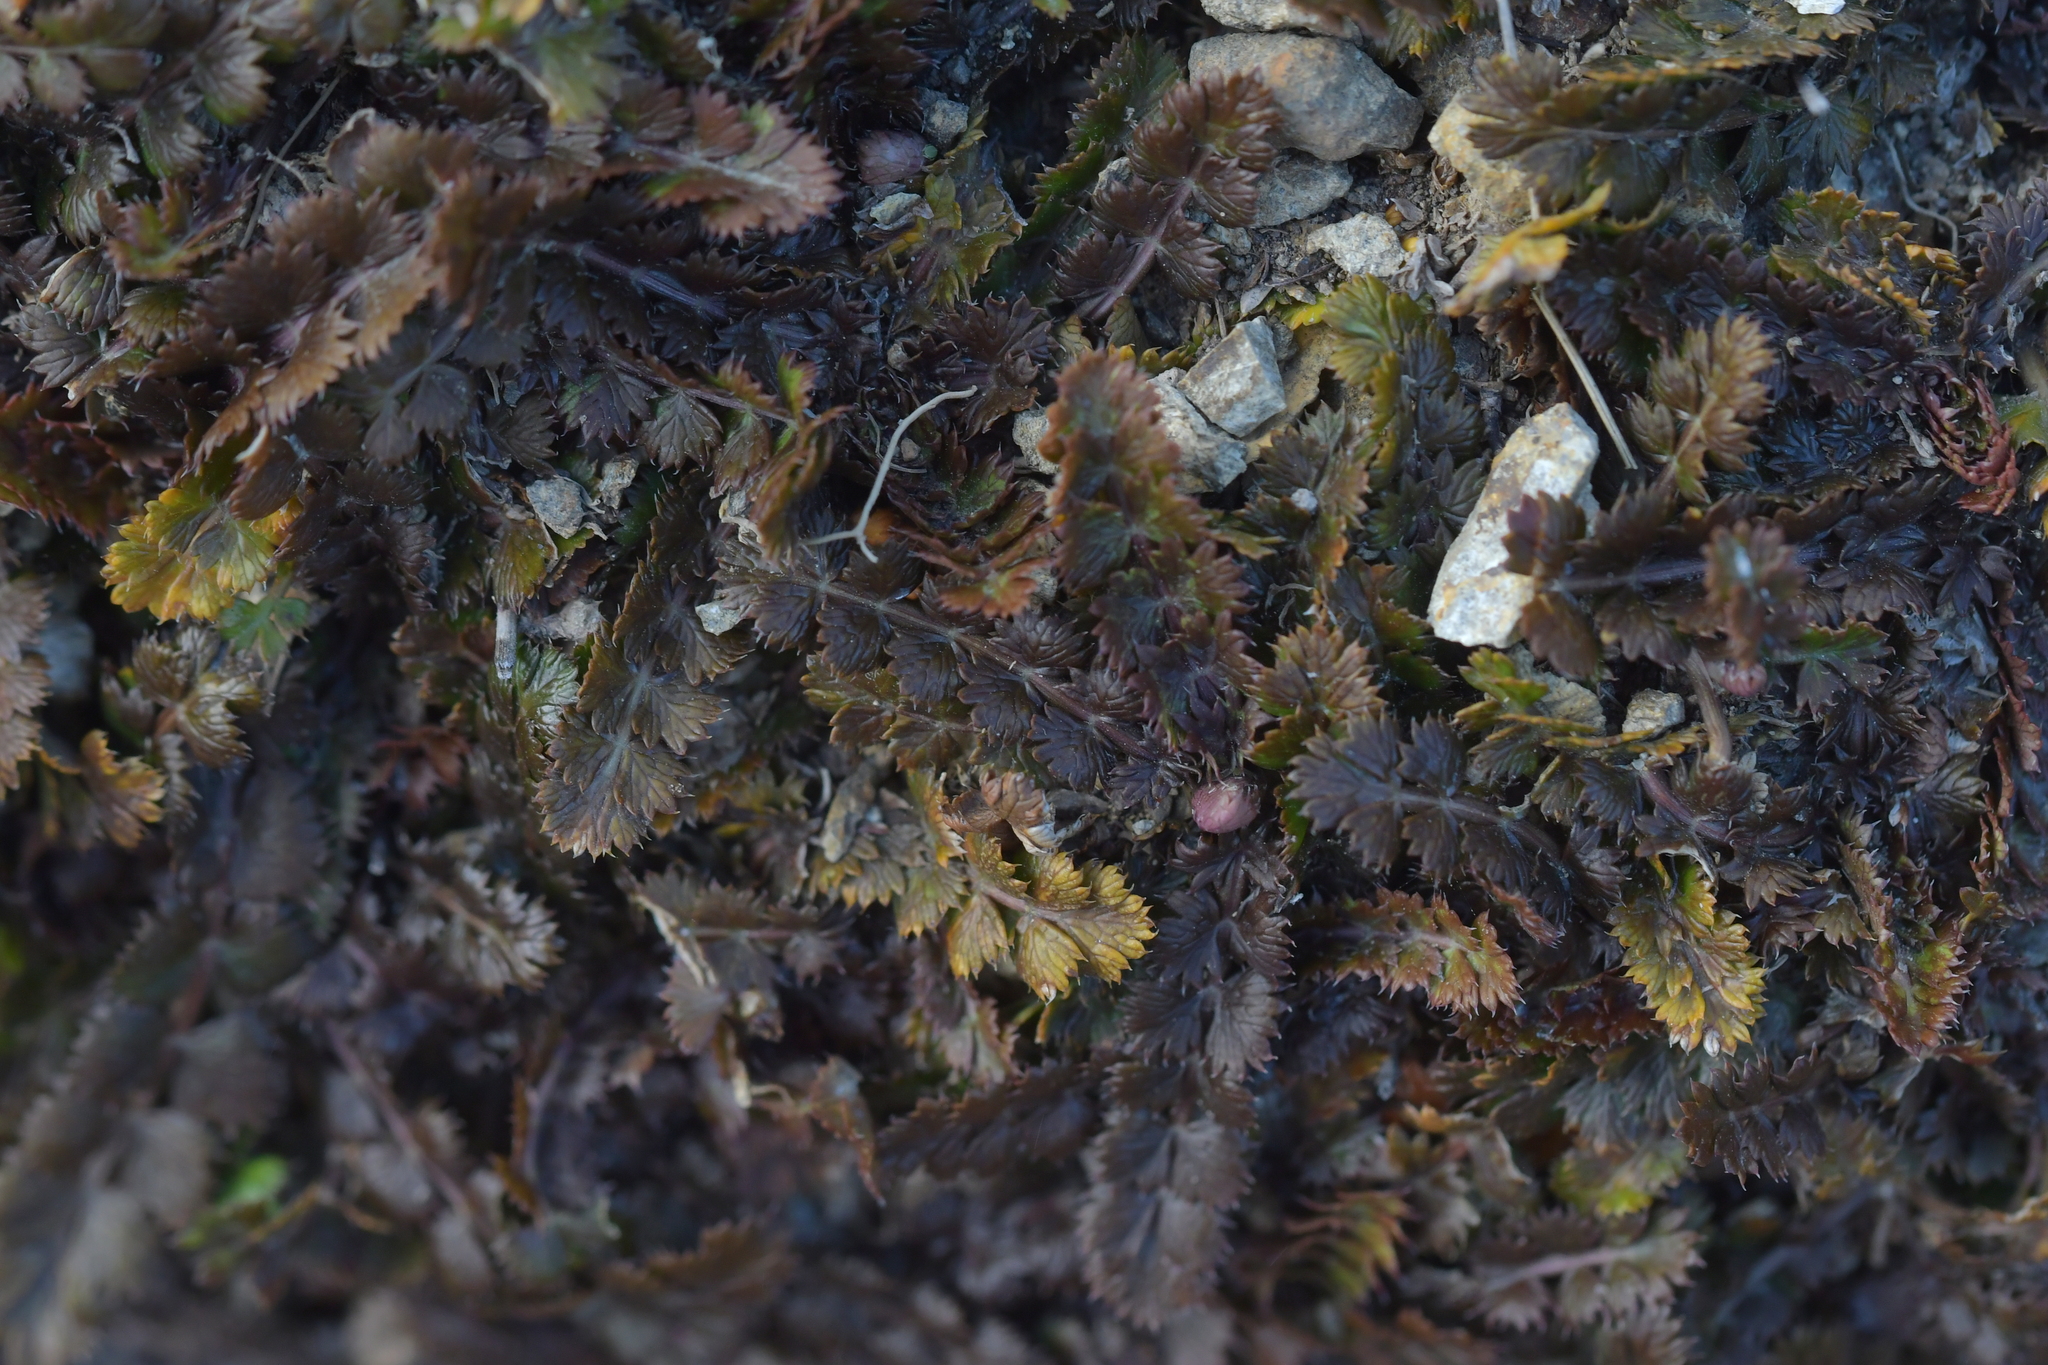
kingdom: Plantae
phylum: Tracheophyta
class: Magnoliopsida
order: Apiales
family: Apiaceae
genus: Anisotome
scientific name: Anisotome aromatica
